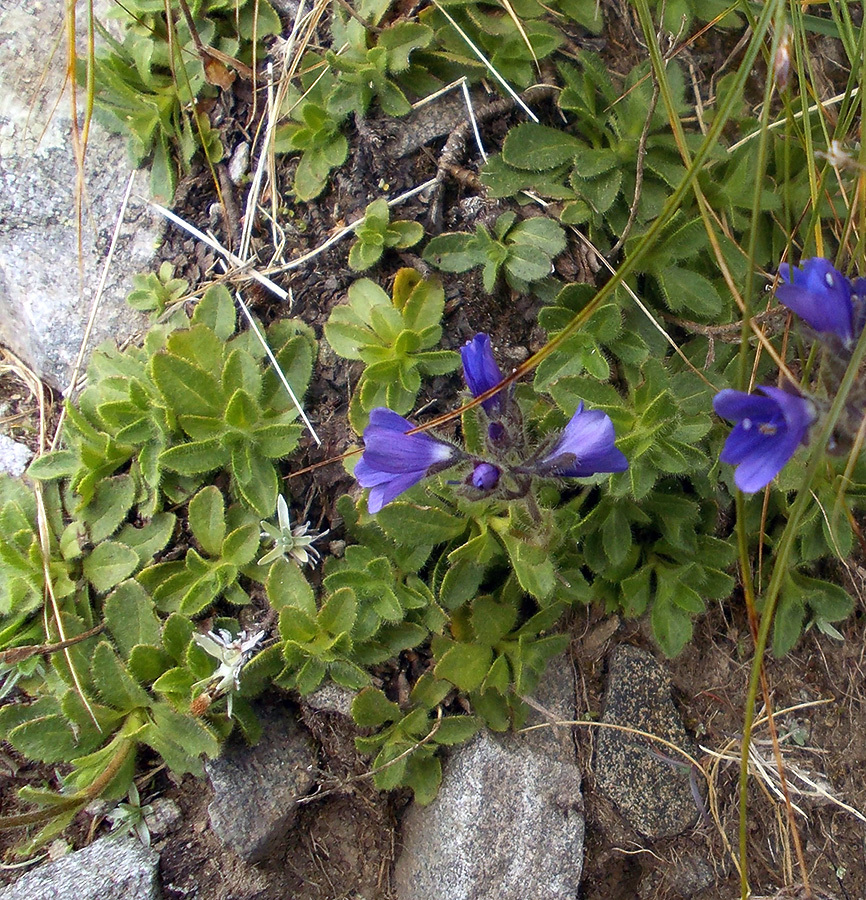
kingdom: Plantae
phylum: Tracheophyta
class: Magnoliopsida
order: Lamiales
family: Plantaginaceae
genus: Veronica
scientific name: Veronica bellidioides
